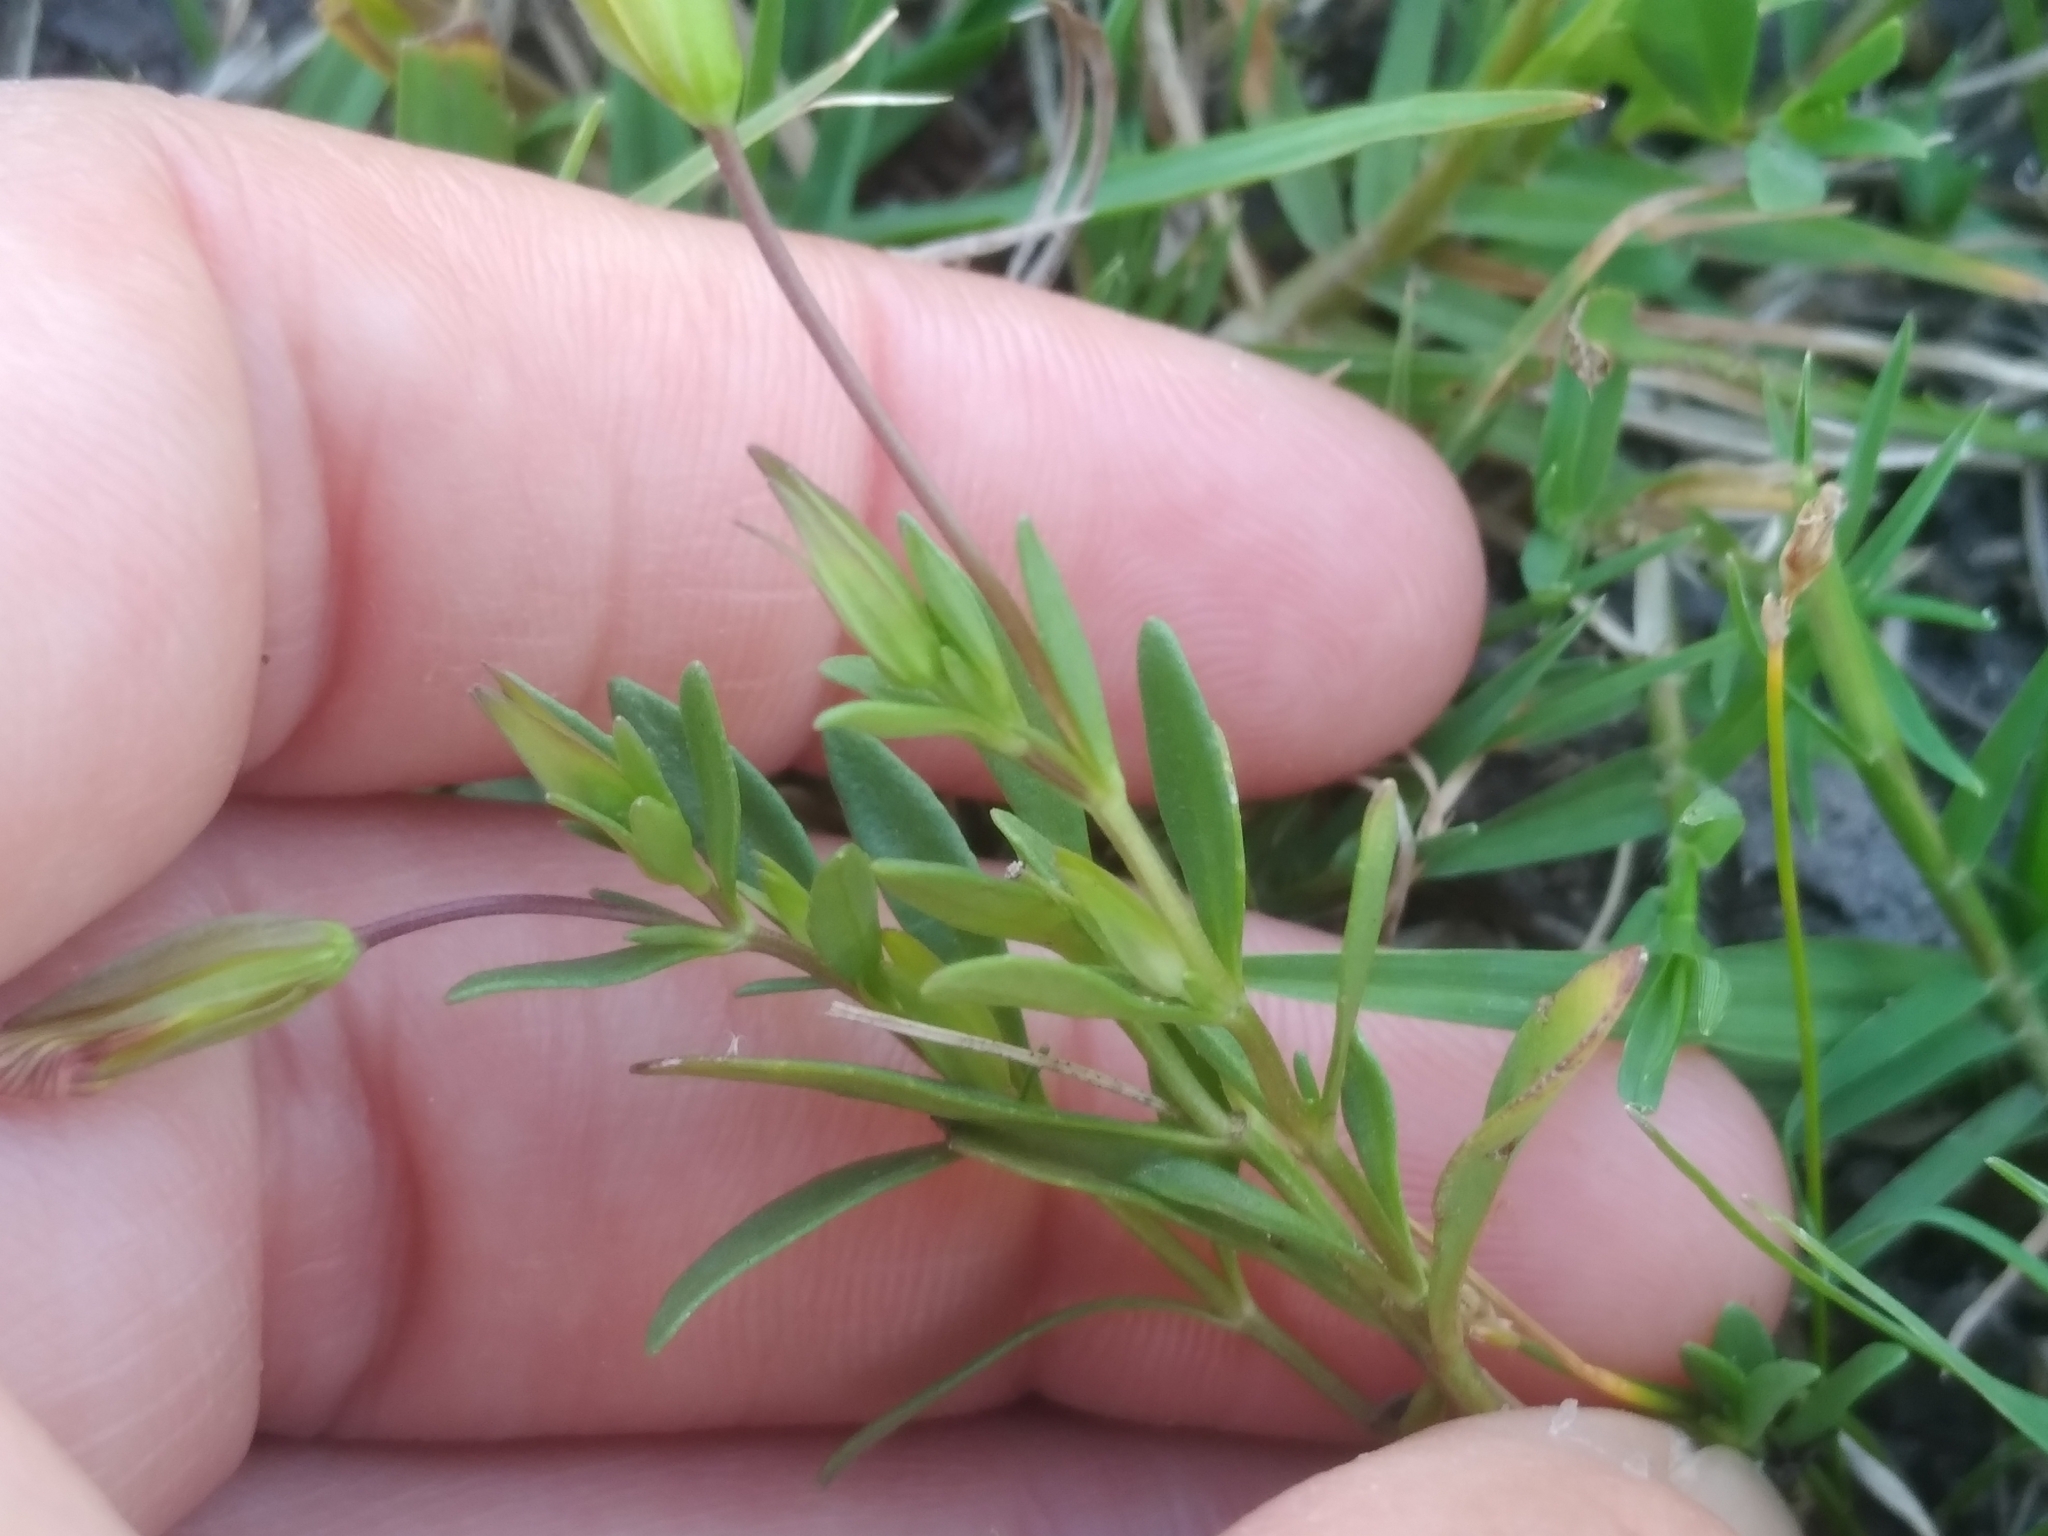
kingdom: Plantae
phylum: Tracheophyta
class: Magnoliopsida
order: Lamiales
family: Plantaginaceae
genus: Mecardonia
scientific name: Mecardonia procumbens
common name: Baby jump-up
